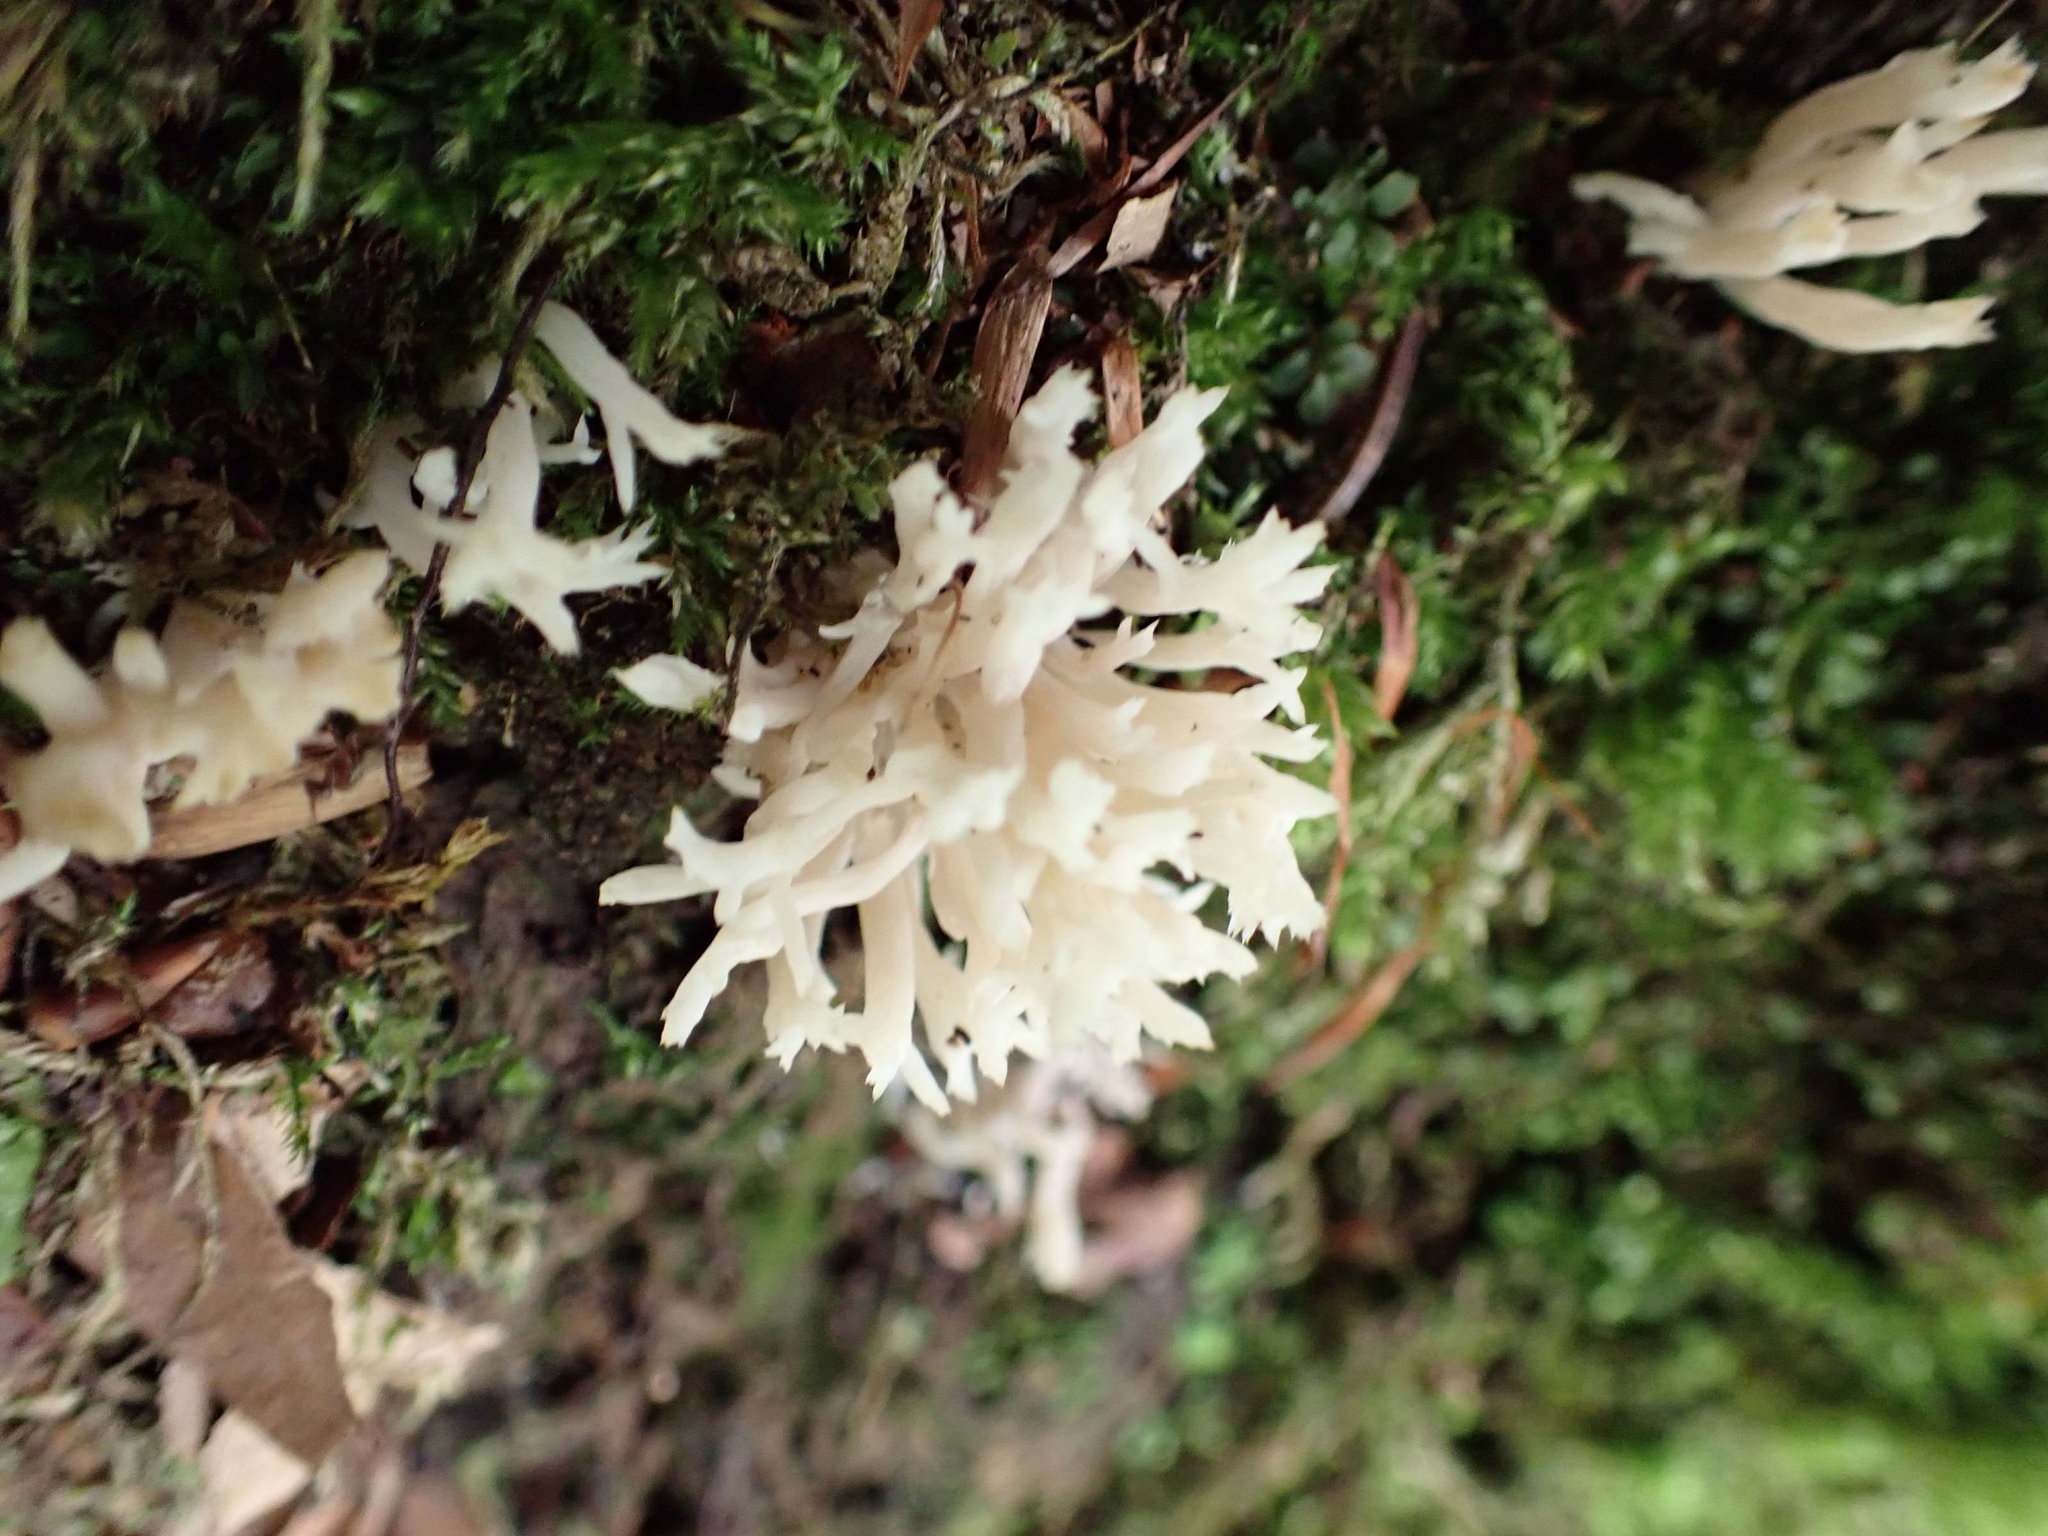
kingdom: Fungi
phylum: Basidiomycota
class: Agaricomycetes
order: Cantharellales
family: Hydnaceae
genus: Clavulina
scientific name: Clavulina coralloides
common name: Crested coral
